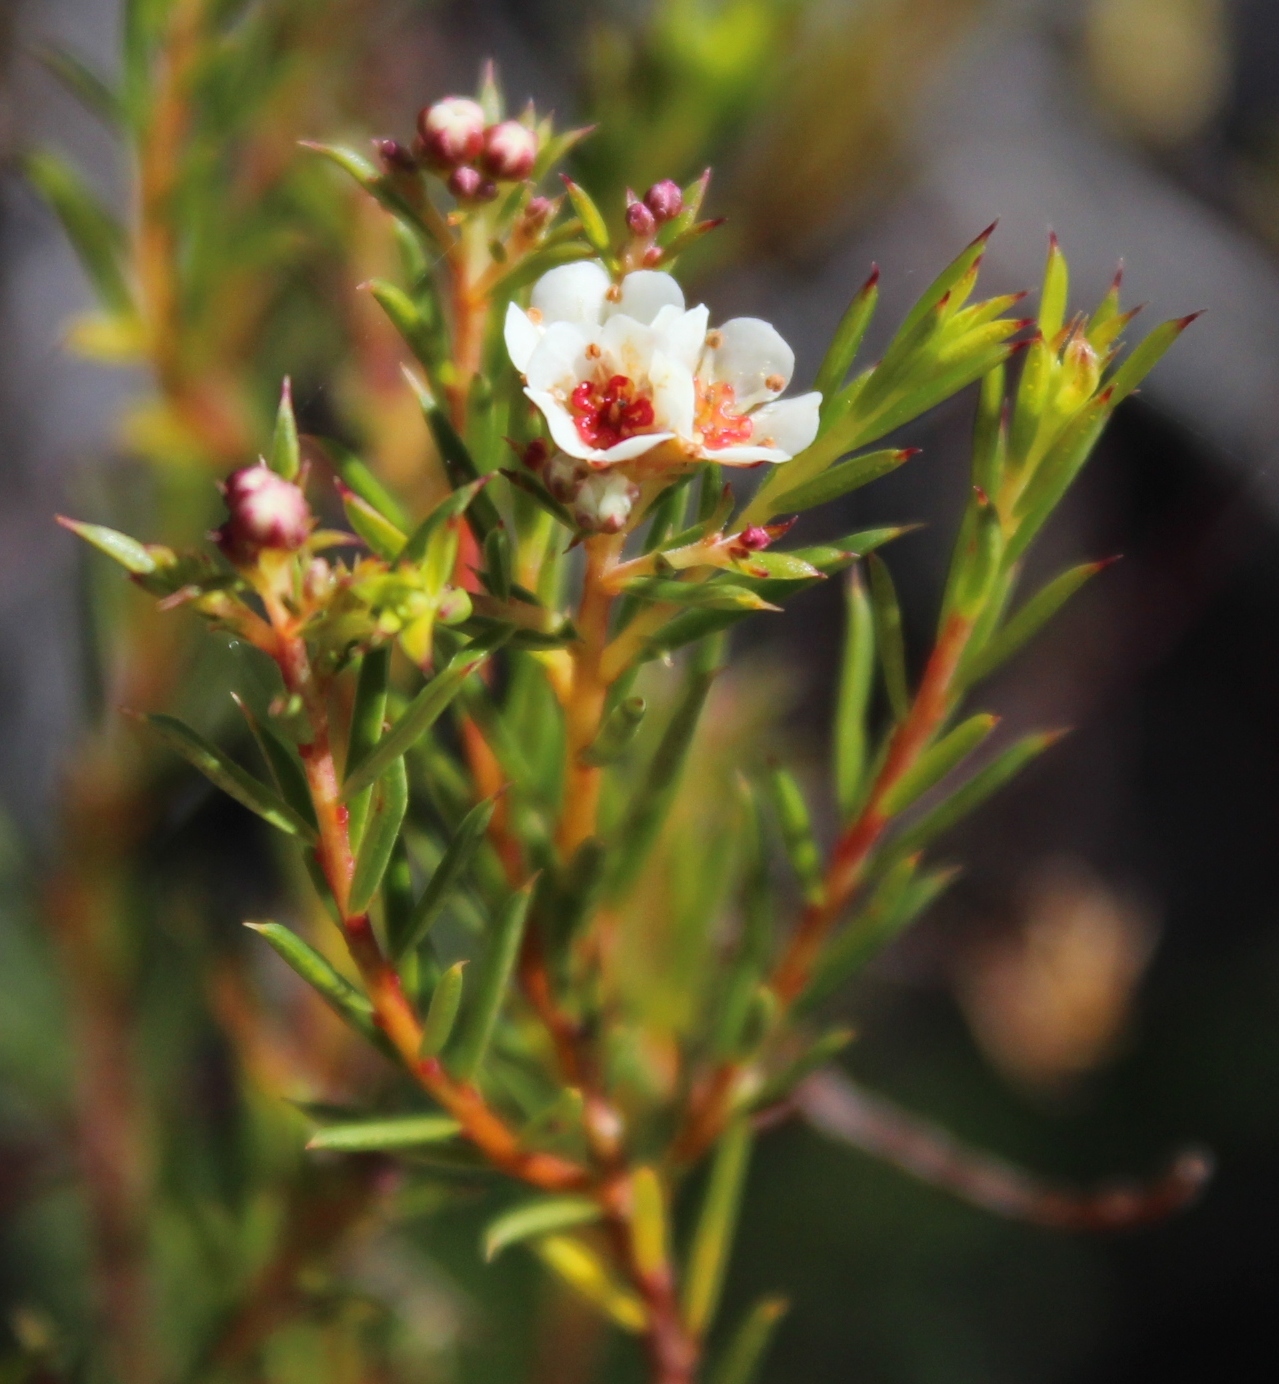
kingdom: Plantae
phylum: Tracheophyta
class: Magnoliopsida
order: Sapindales
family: Rutaceae
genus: Diosma
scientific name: Diosma hirsuta
